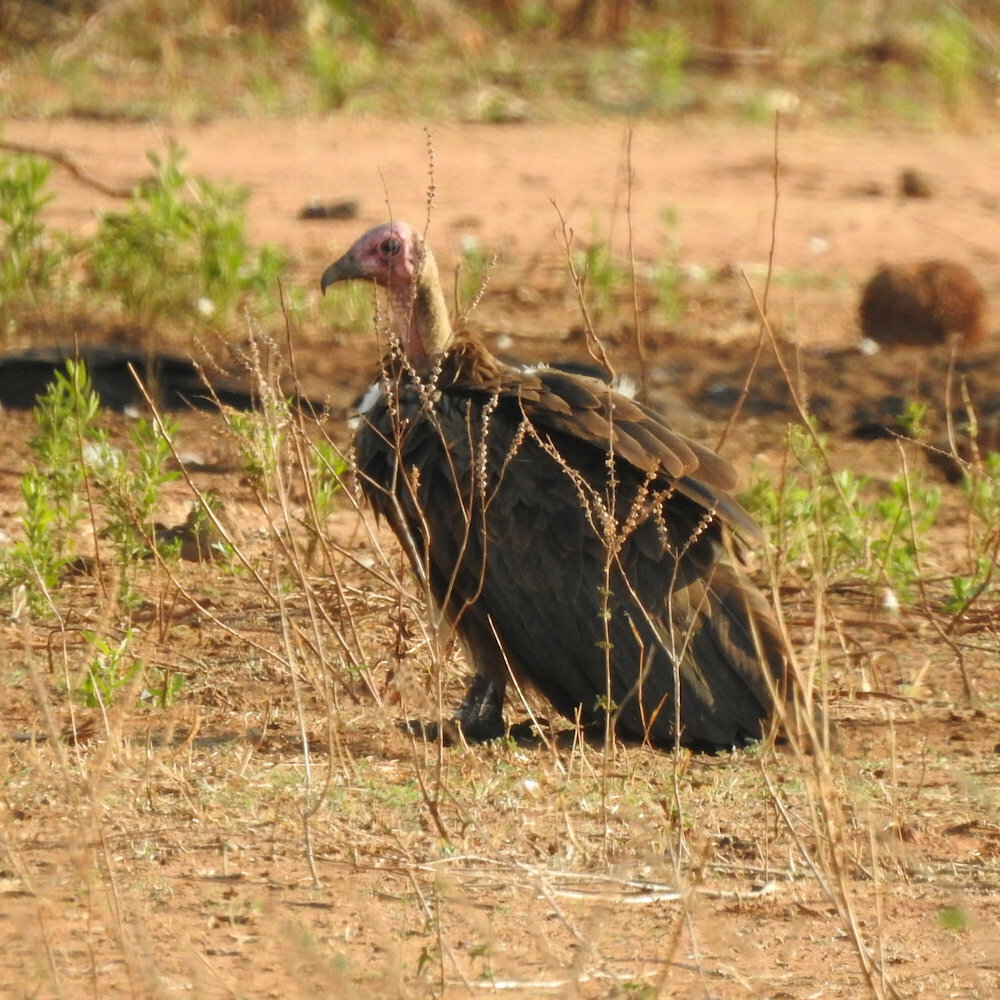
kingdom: Animalia
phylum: Chordata
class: Aves
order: Accipitriformes
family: Accipitridae
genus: Necrosyrtes
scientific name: Necrosyrtes monachus
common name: Hooded vulture
